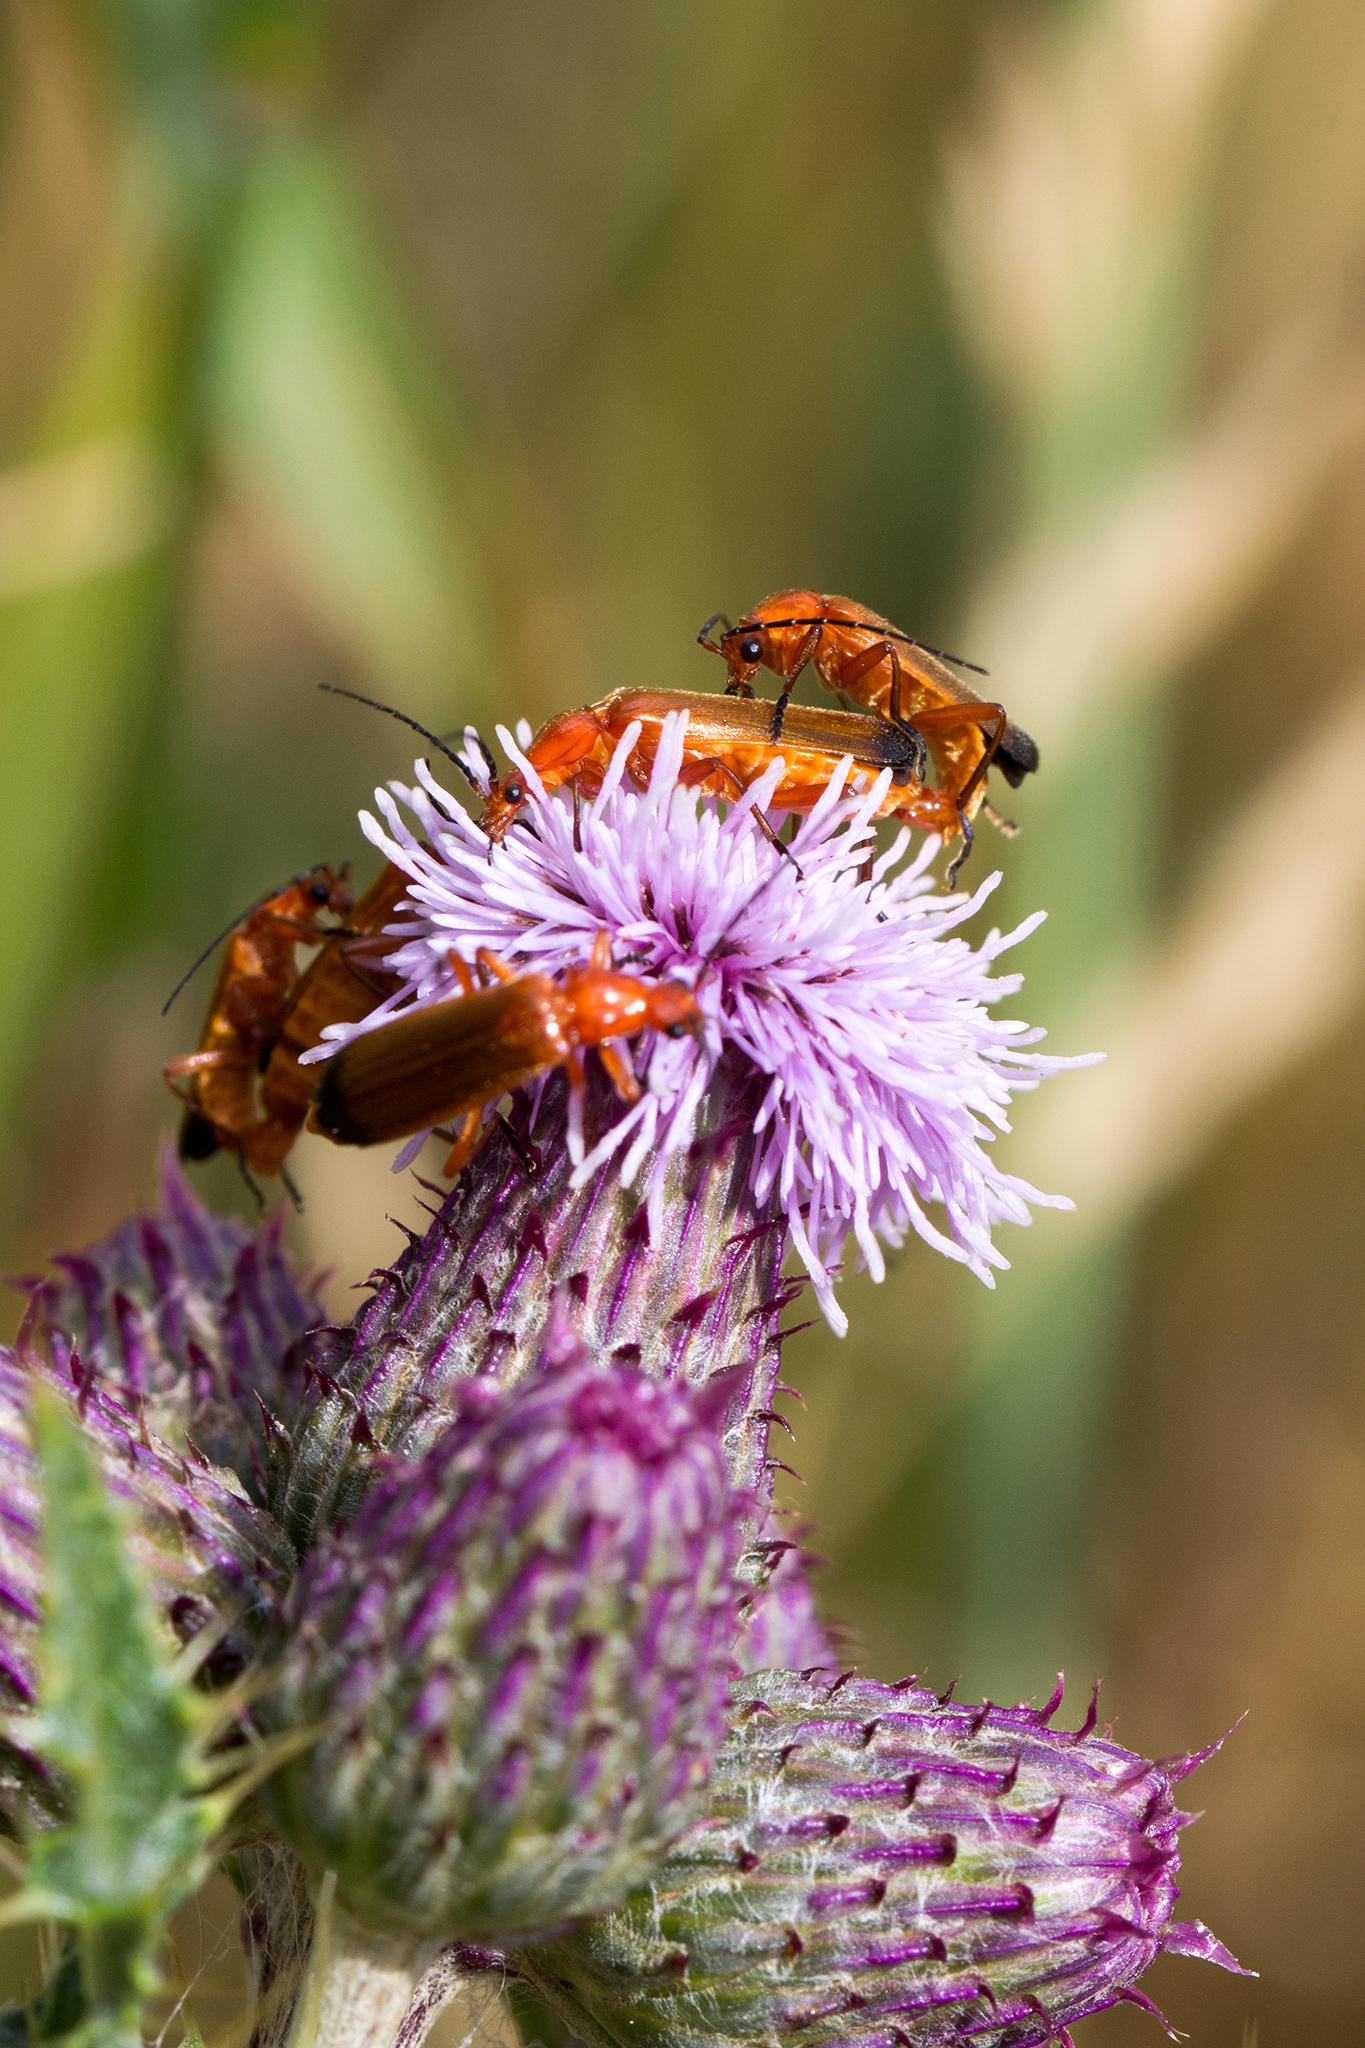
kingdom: Animalia
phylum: Arthropoda
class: Insecta
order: Coleoptera
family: Cantharidae
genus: Rhagonycha
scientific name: Rhagonycha fulva
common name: Common red soldier beetle
